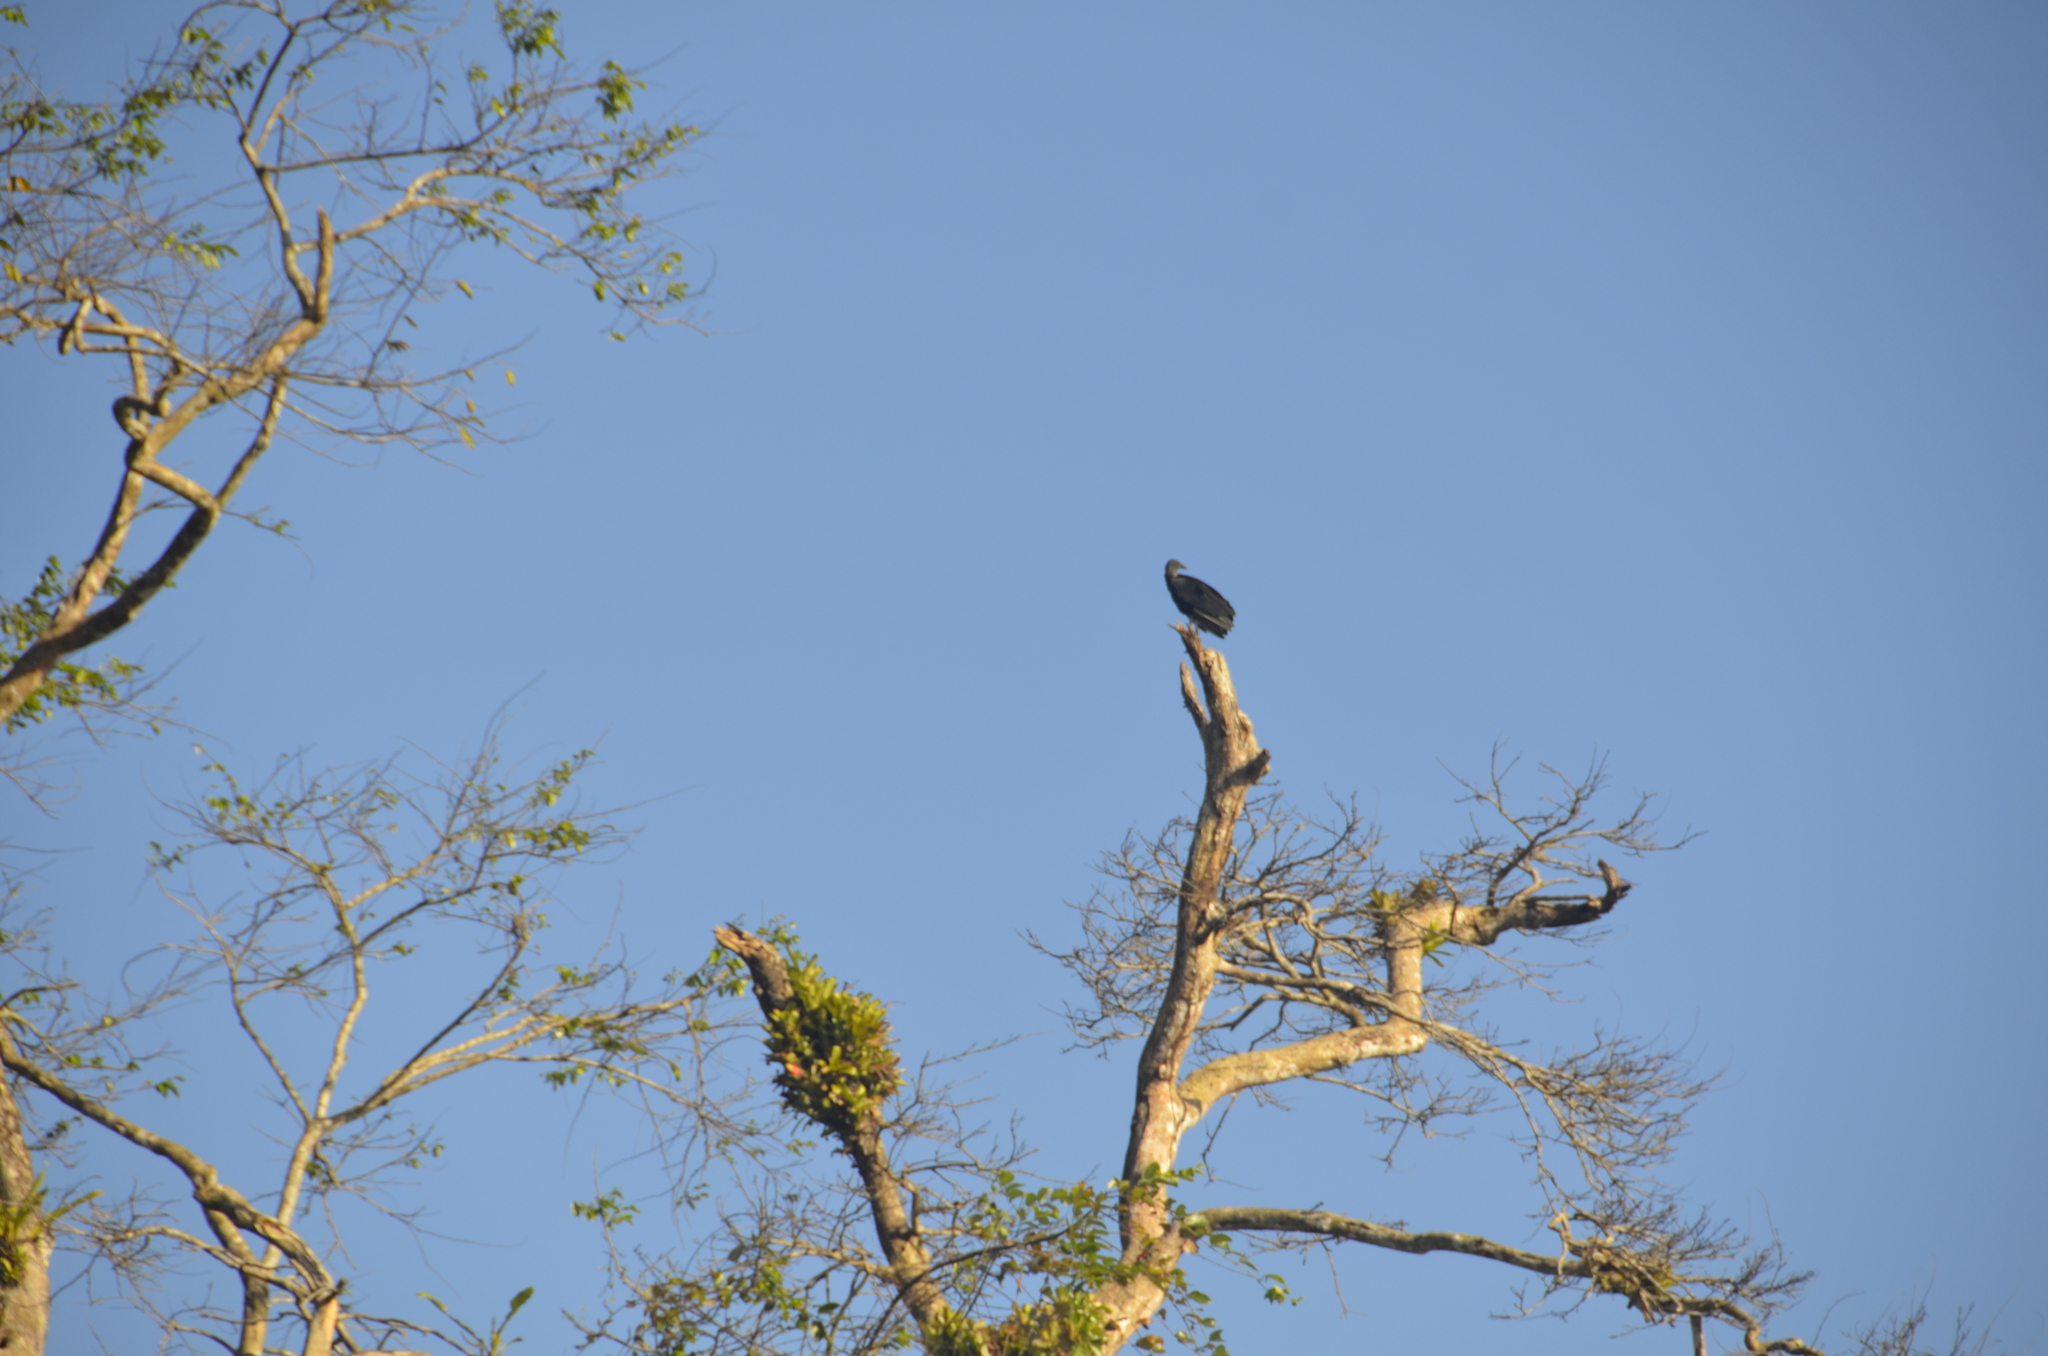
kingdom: Animalia
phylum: Chordata
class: Aves
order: Accipitriformes
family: Cathartidae
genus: Coragyps
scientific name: Coragyps atratus
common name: Black vulture
